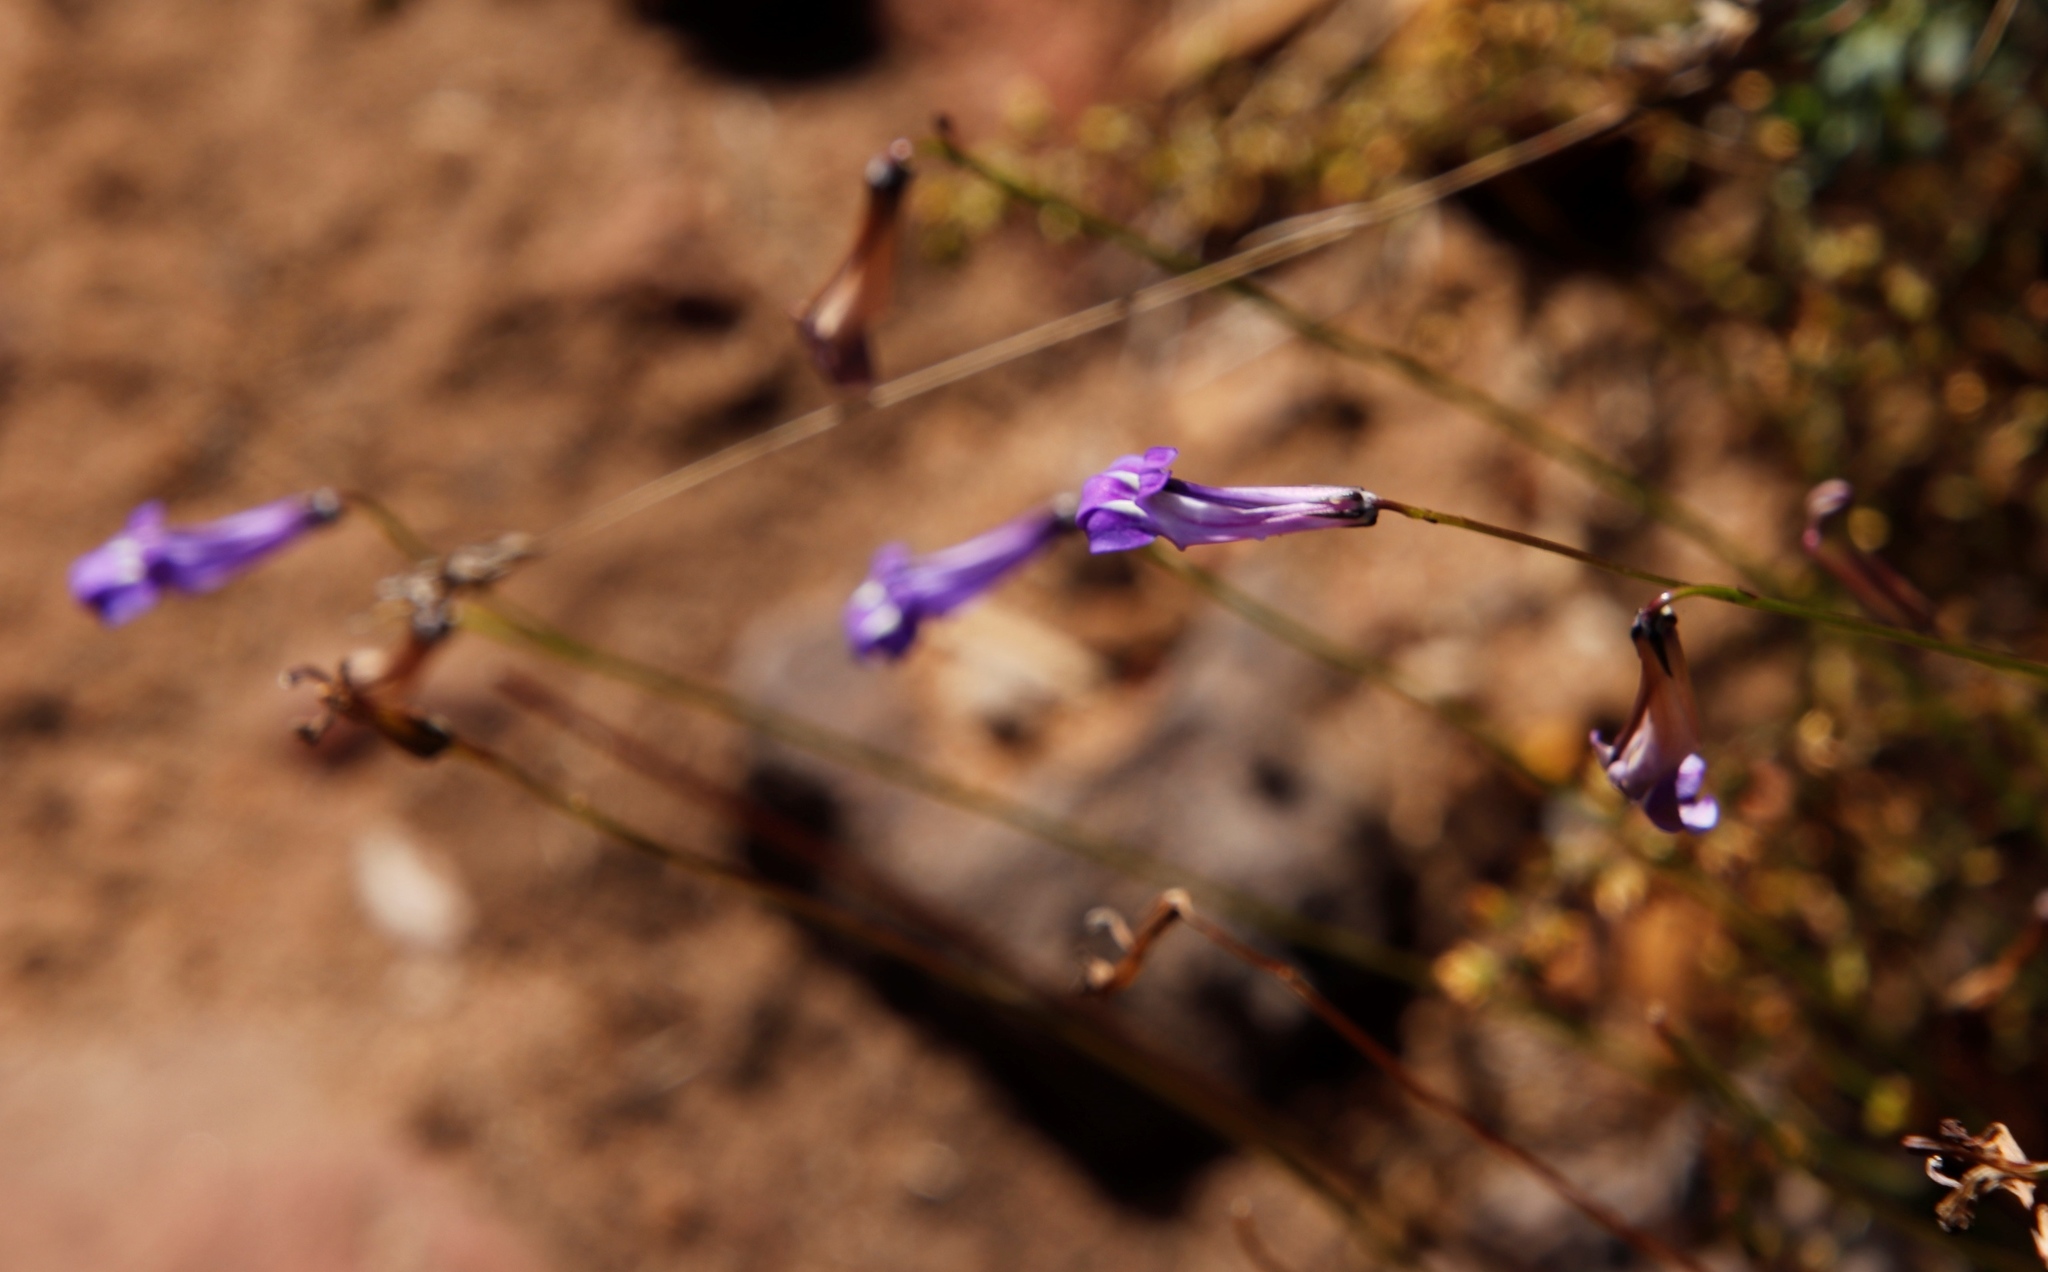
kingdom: Plantae
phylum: Tracheophyta
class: Magnoliopsida
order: Asterales
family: Campanulaceae
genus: Lobelia
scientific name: Lobelia coronopifolia
